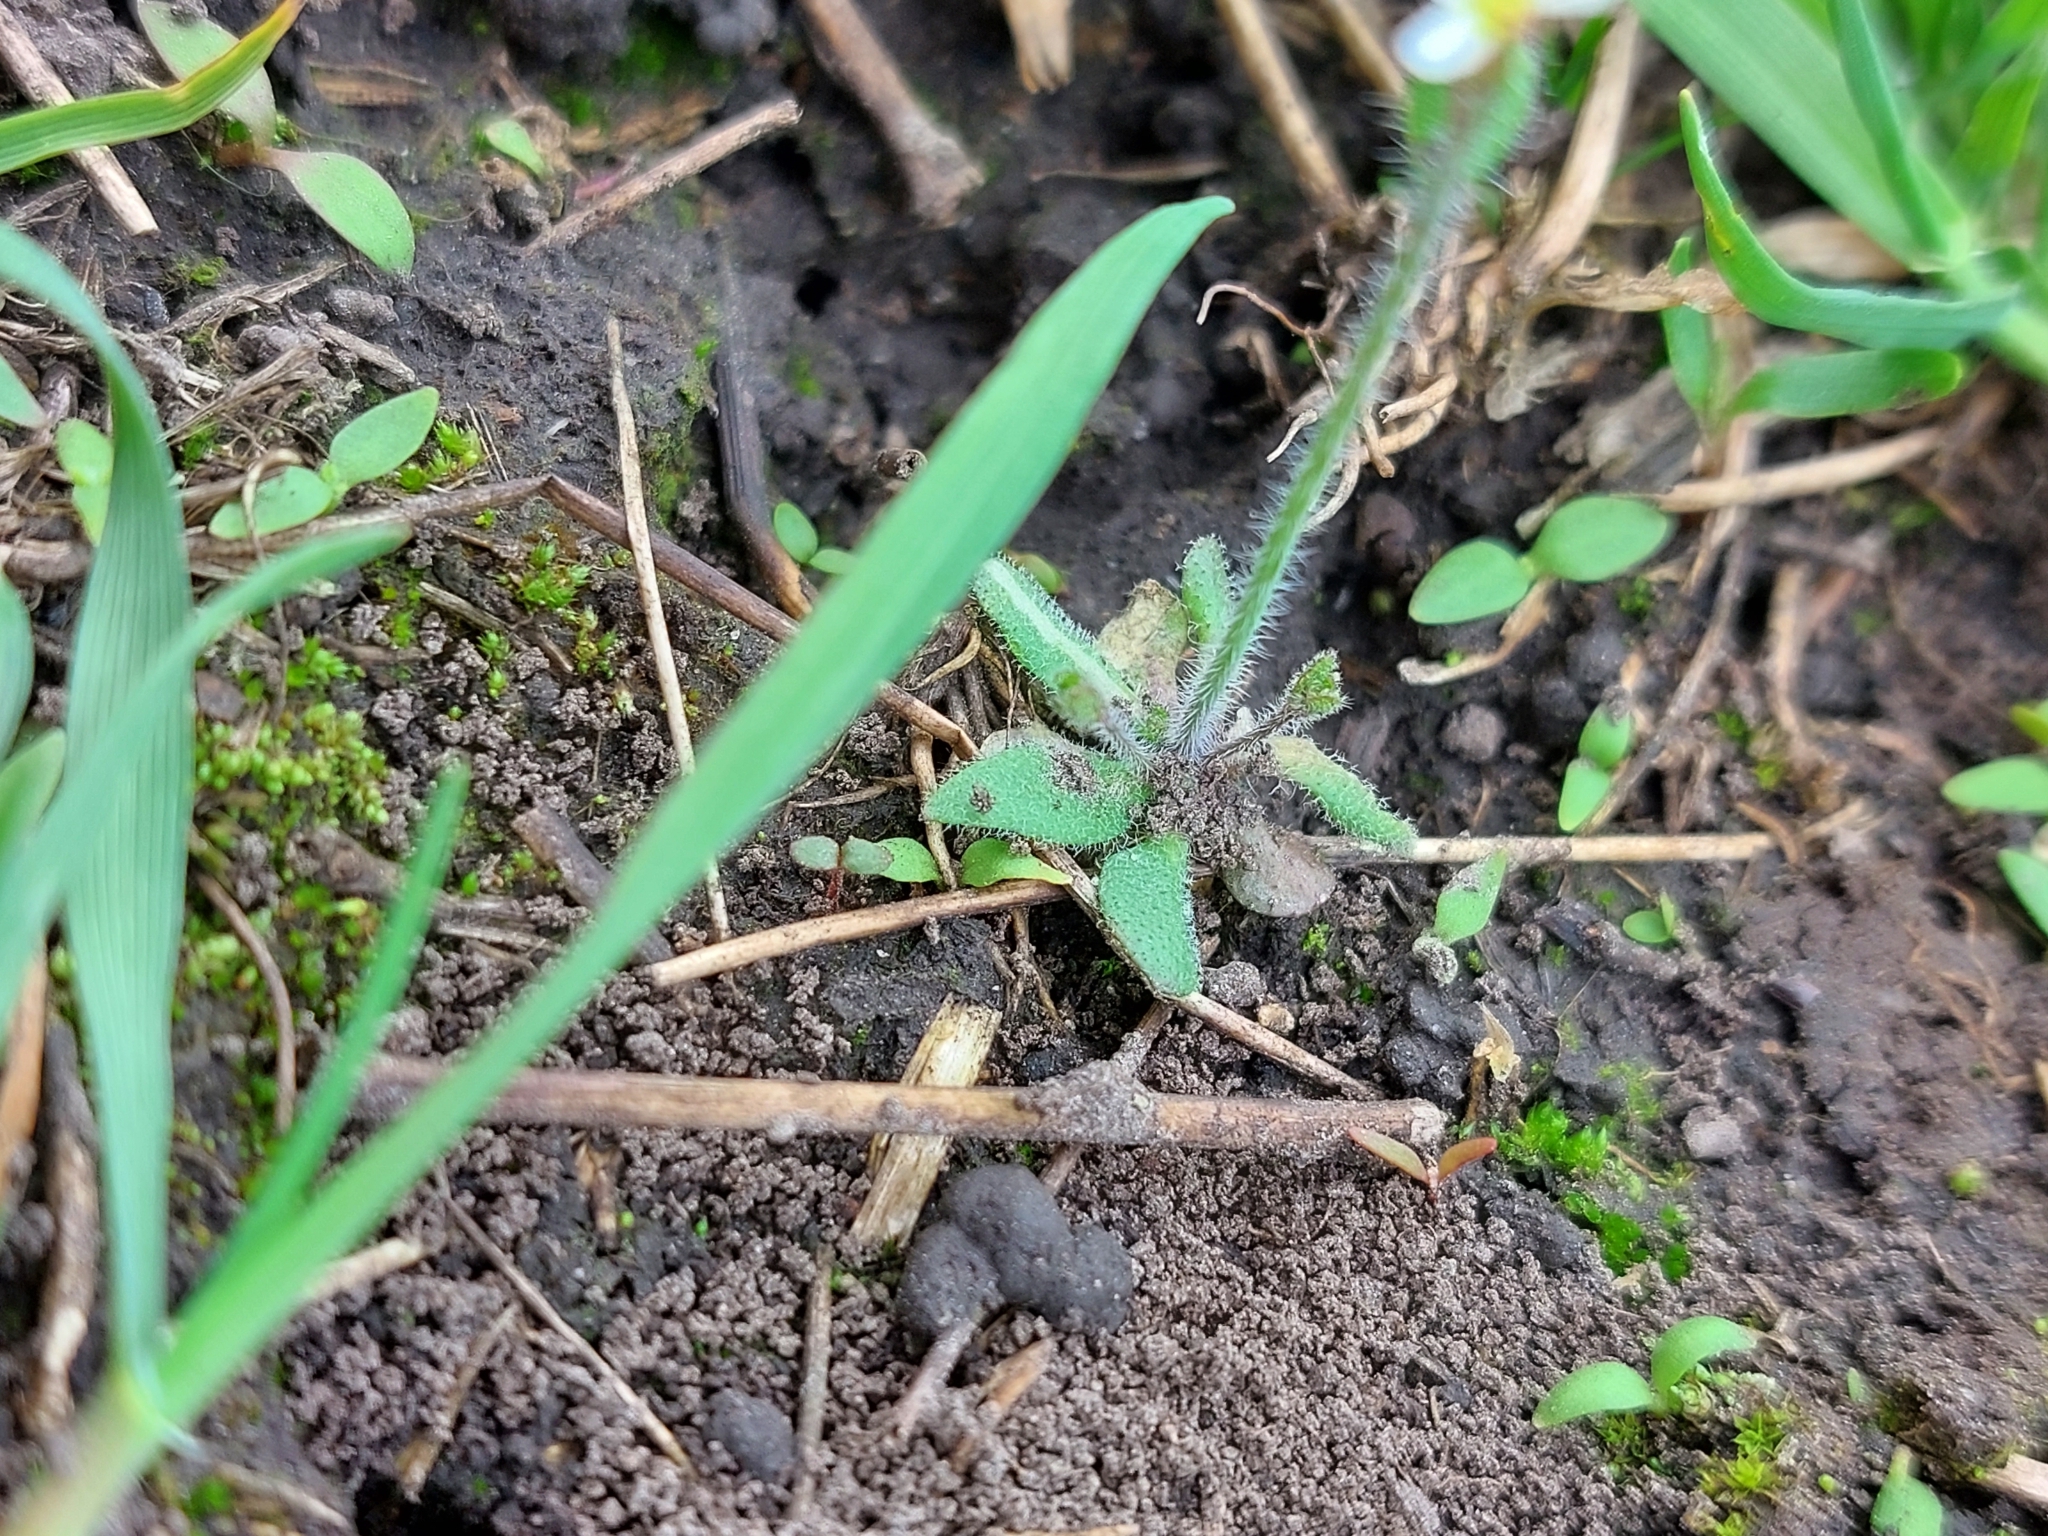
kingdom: Plantae
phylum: Tracheophyta
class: Magnoliopsida
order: Brassicales
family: Brassicaceae
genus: Arabidopsis
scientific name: Arabidopsis thaliana
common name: Thale cress
